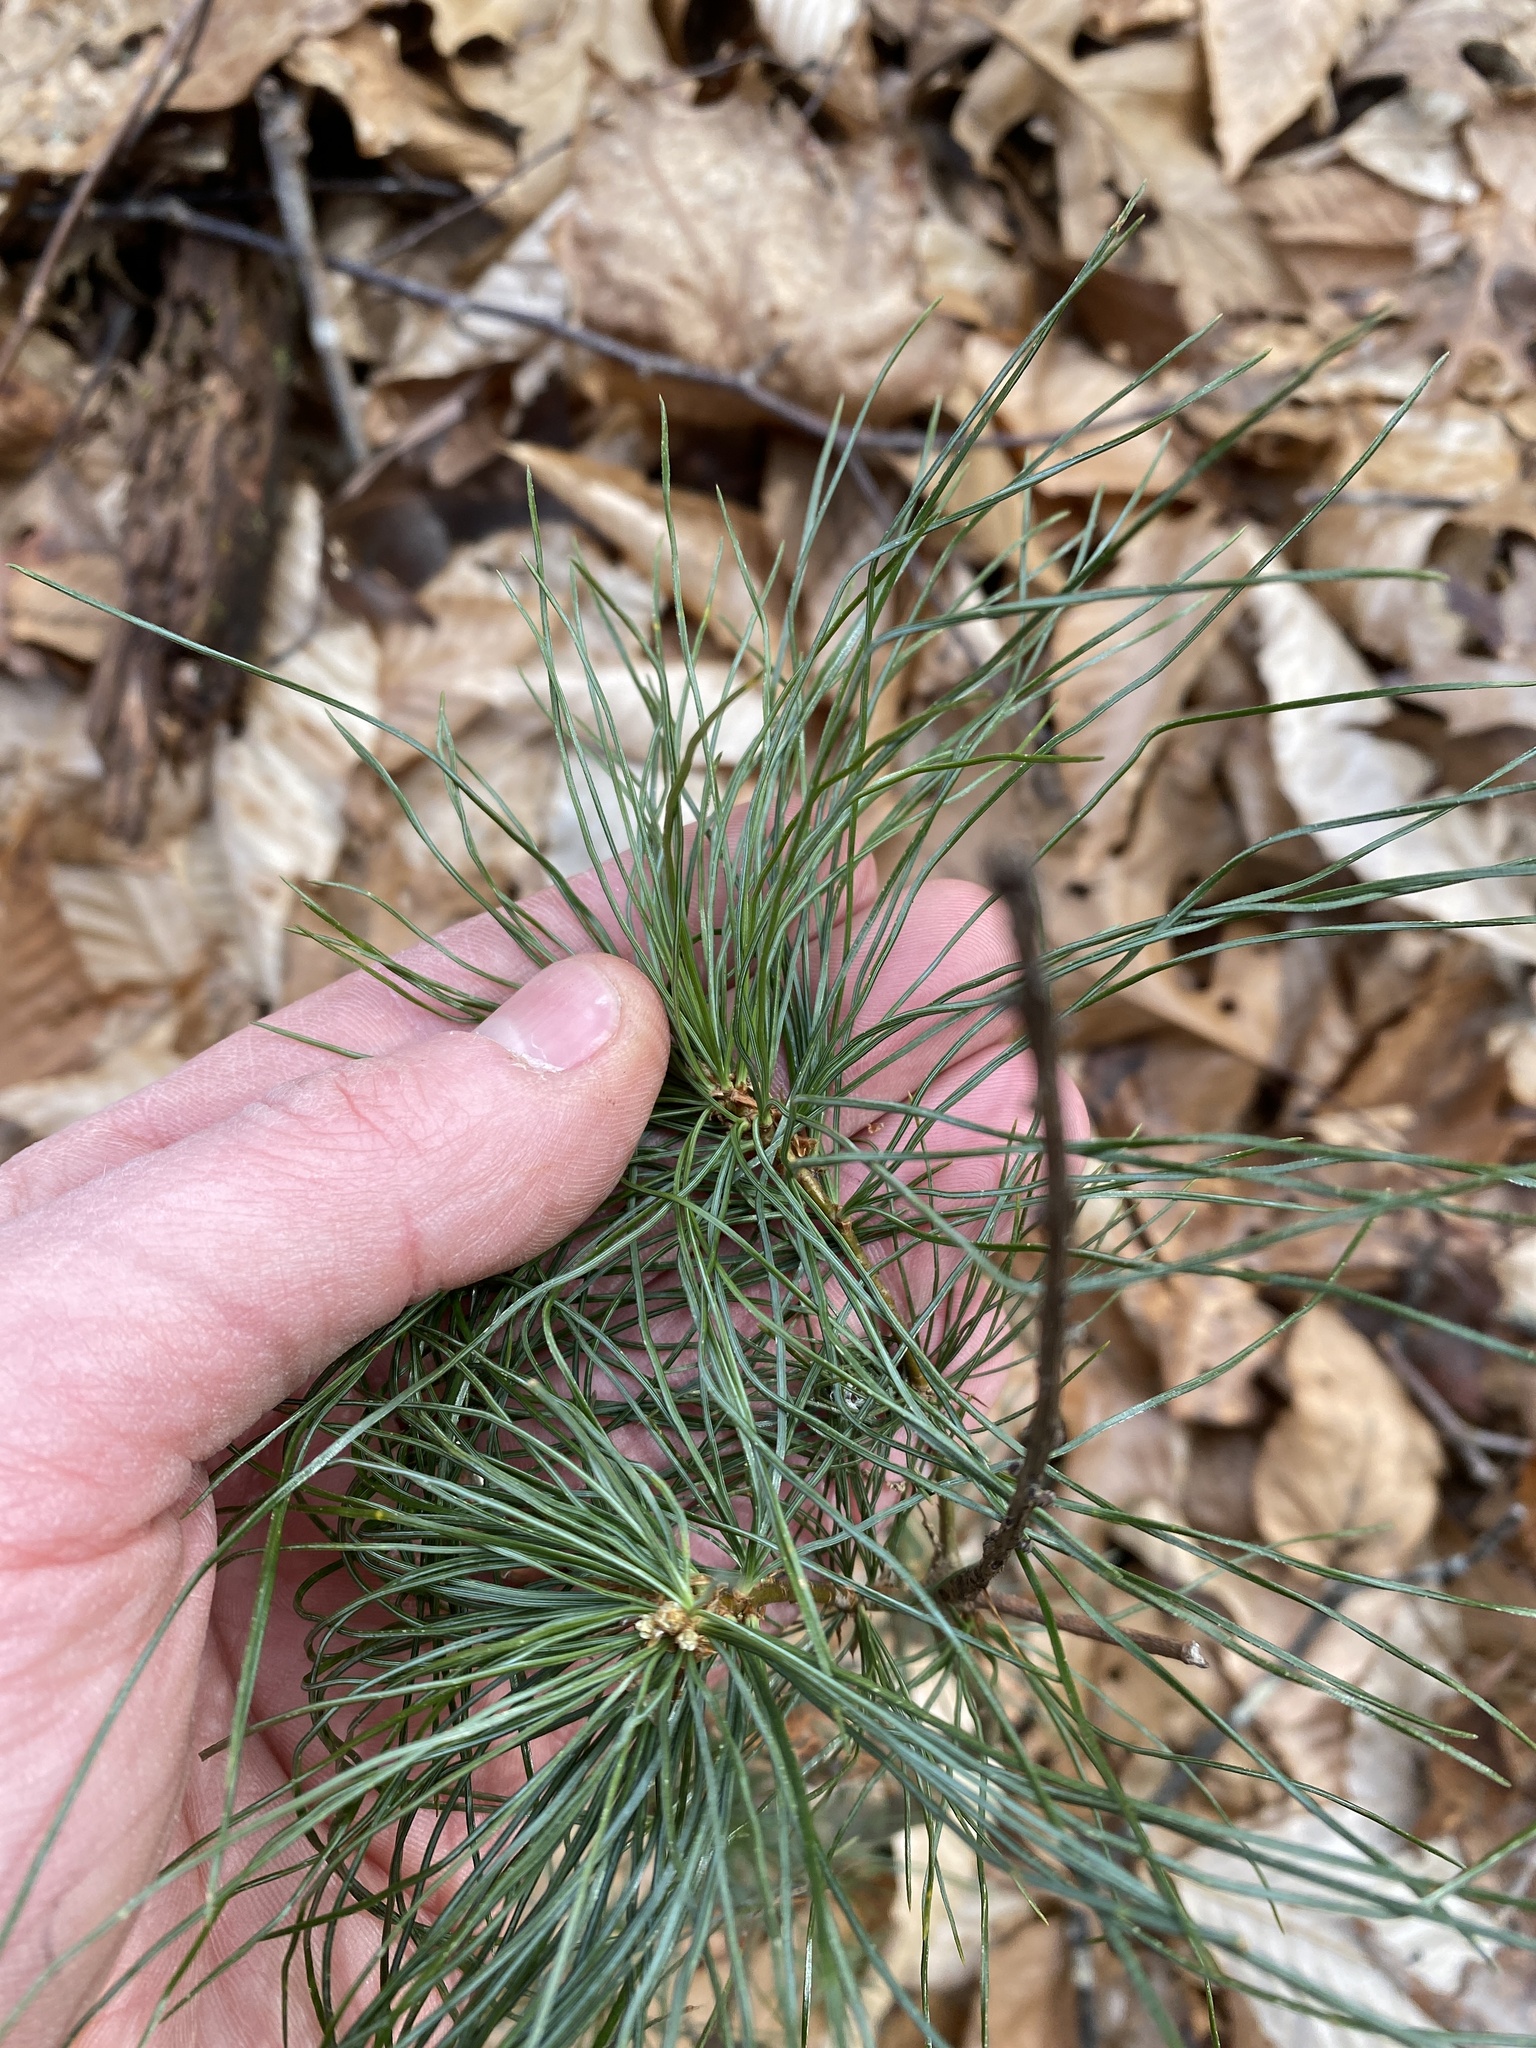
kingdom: Plantae
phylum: Tracheophyta
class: Pinopsida
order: Pinales
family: Pinaceae
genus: Pinus
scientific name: Pinus strobus
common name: Weymouth pine
